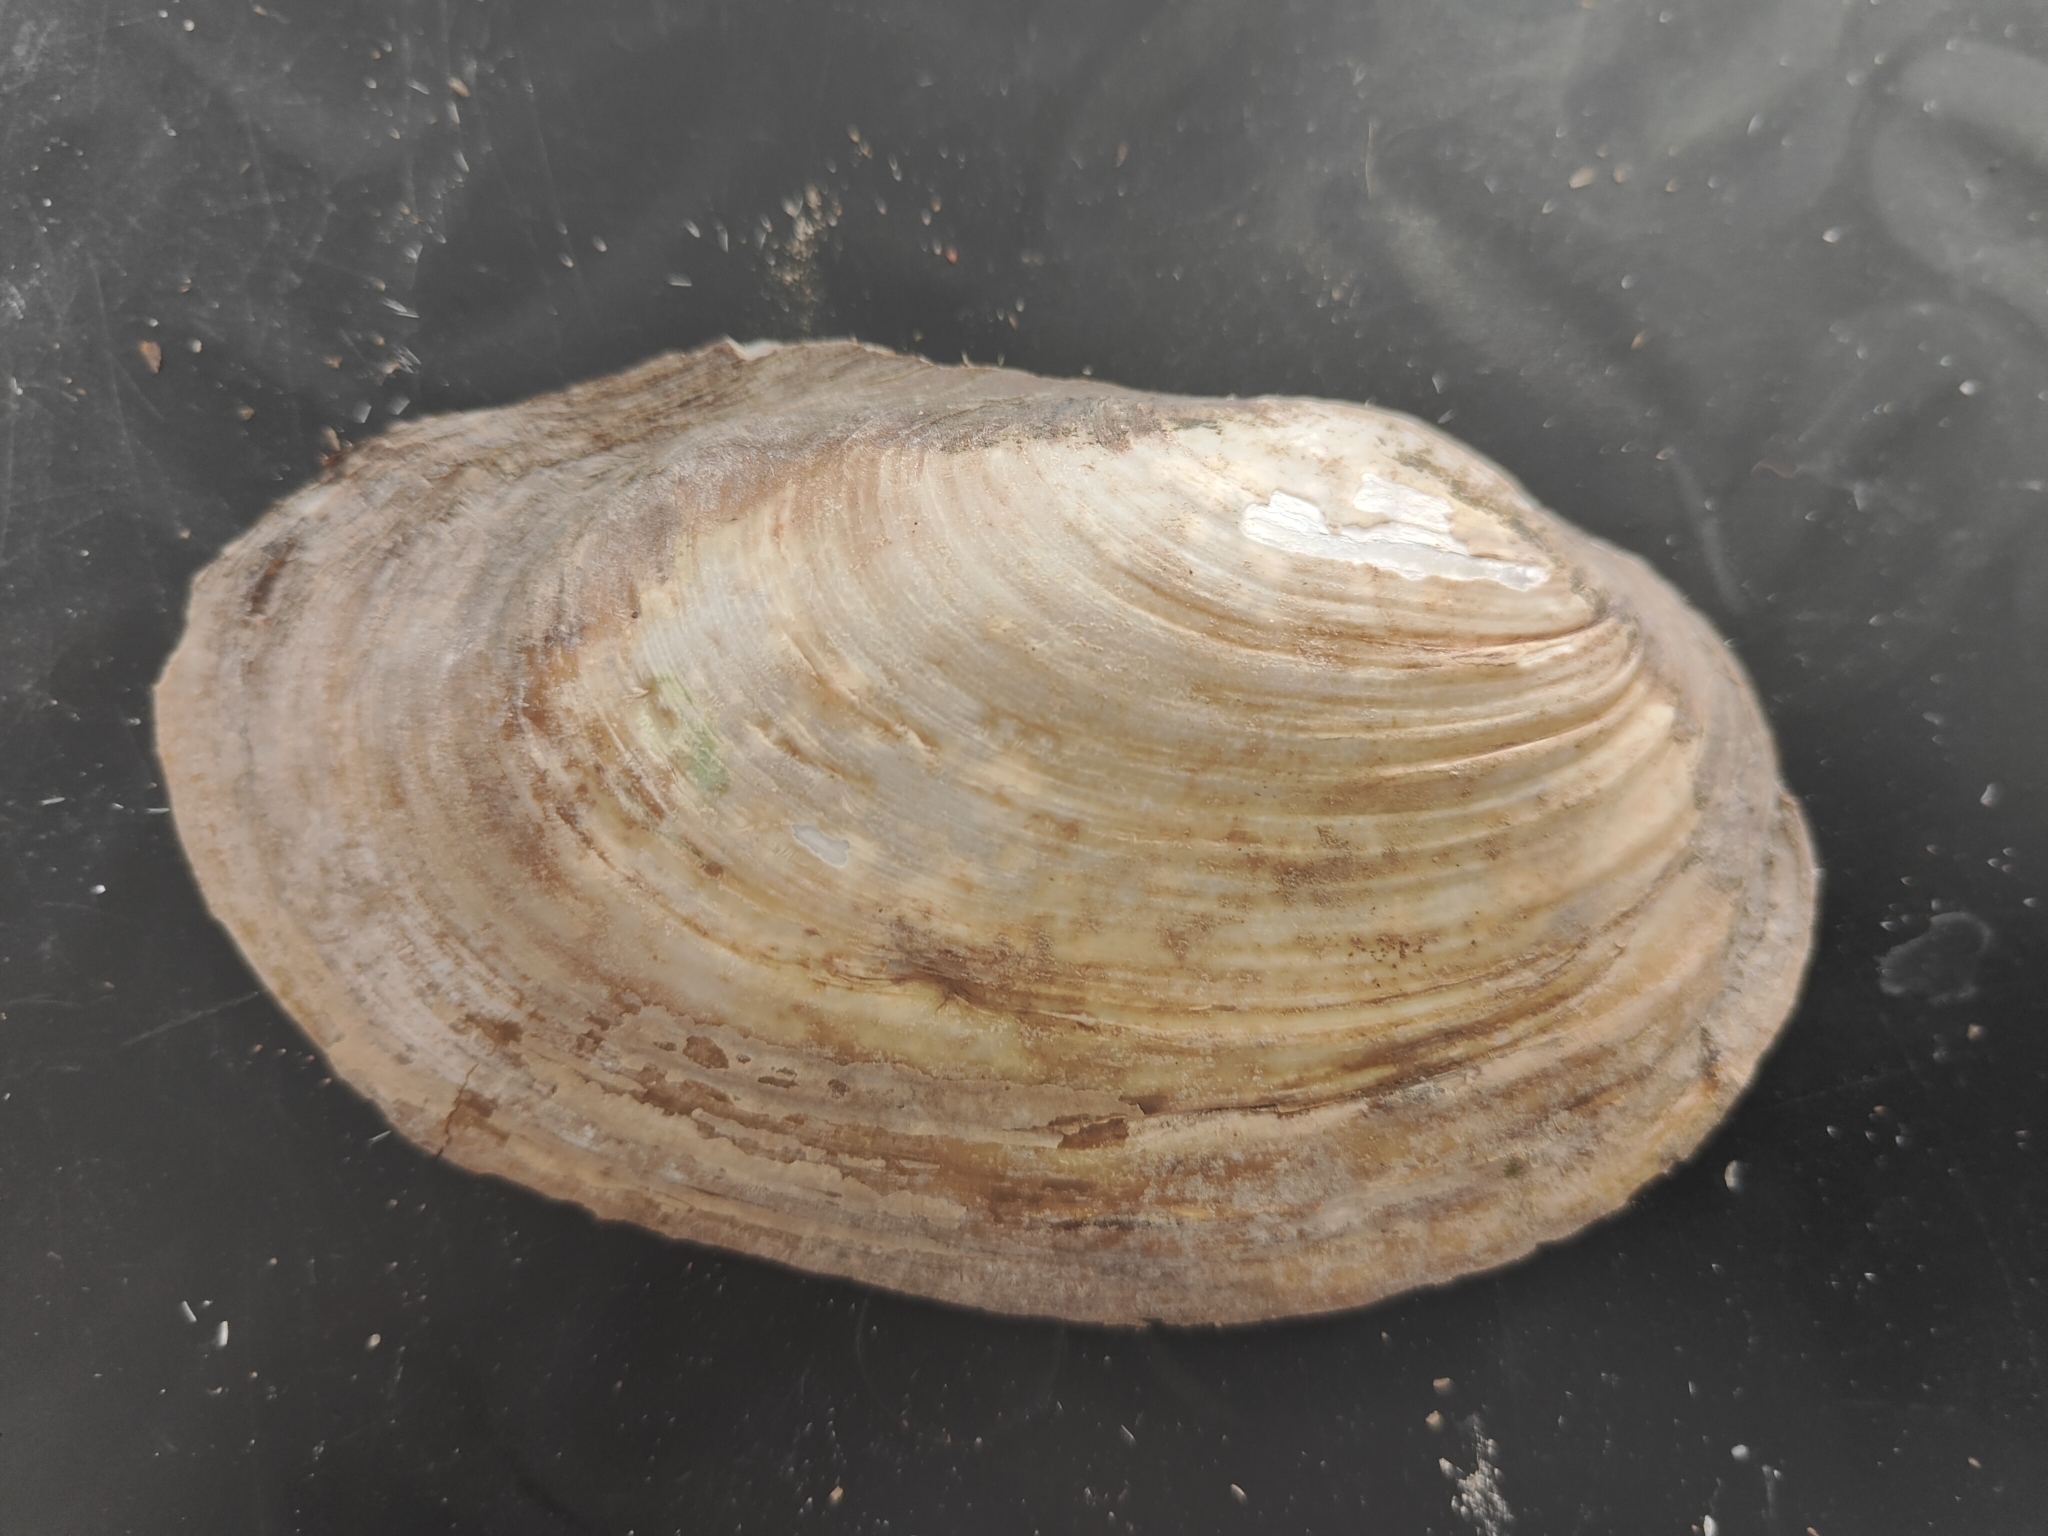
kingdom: Animalia
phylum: Mollusca
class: Bivalvia
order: Unionida
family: Unionidae
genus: Potamilus
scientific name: Potamilus fragilis
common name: Fragile papershell
